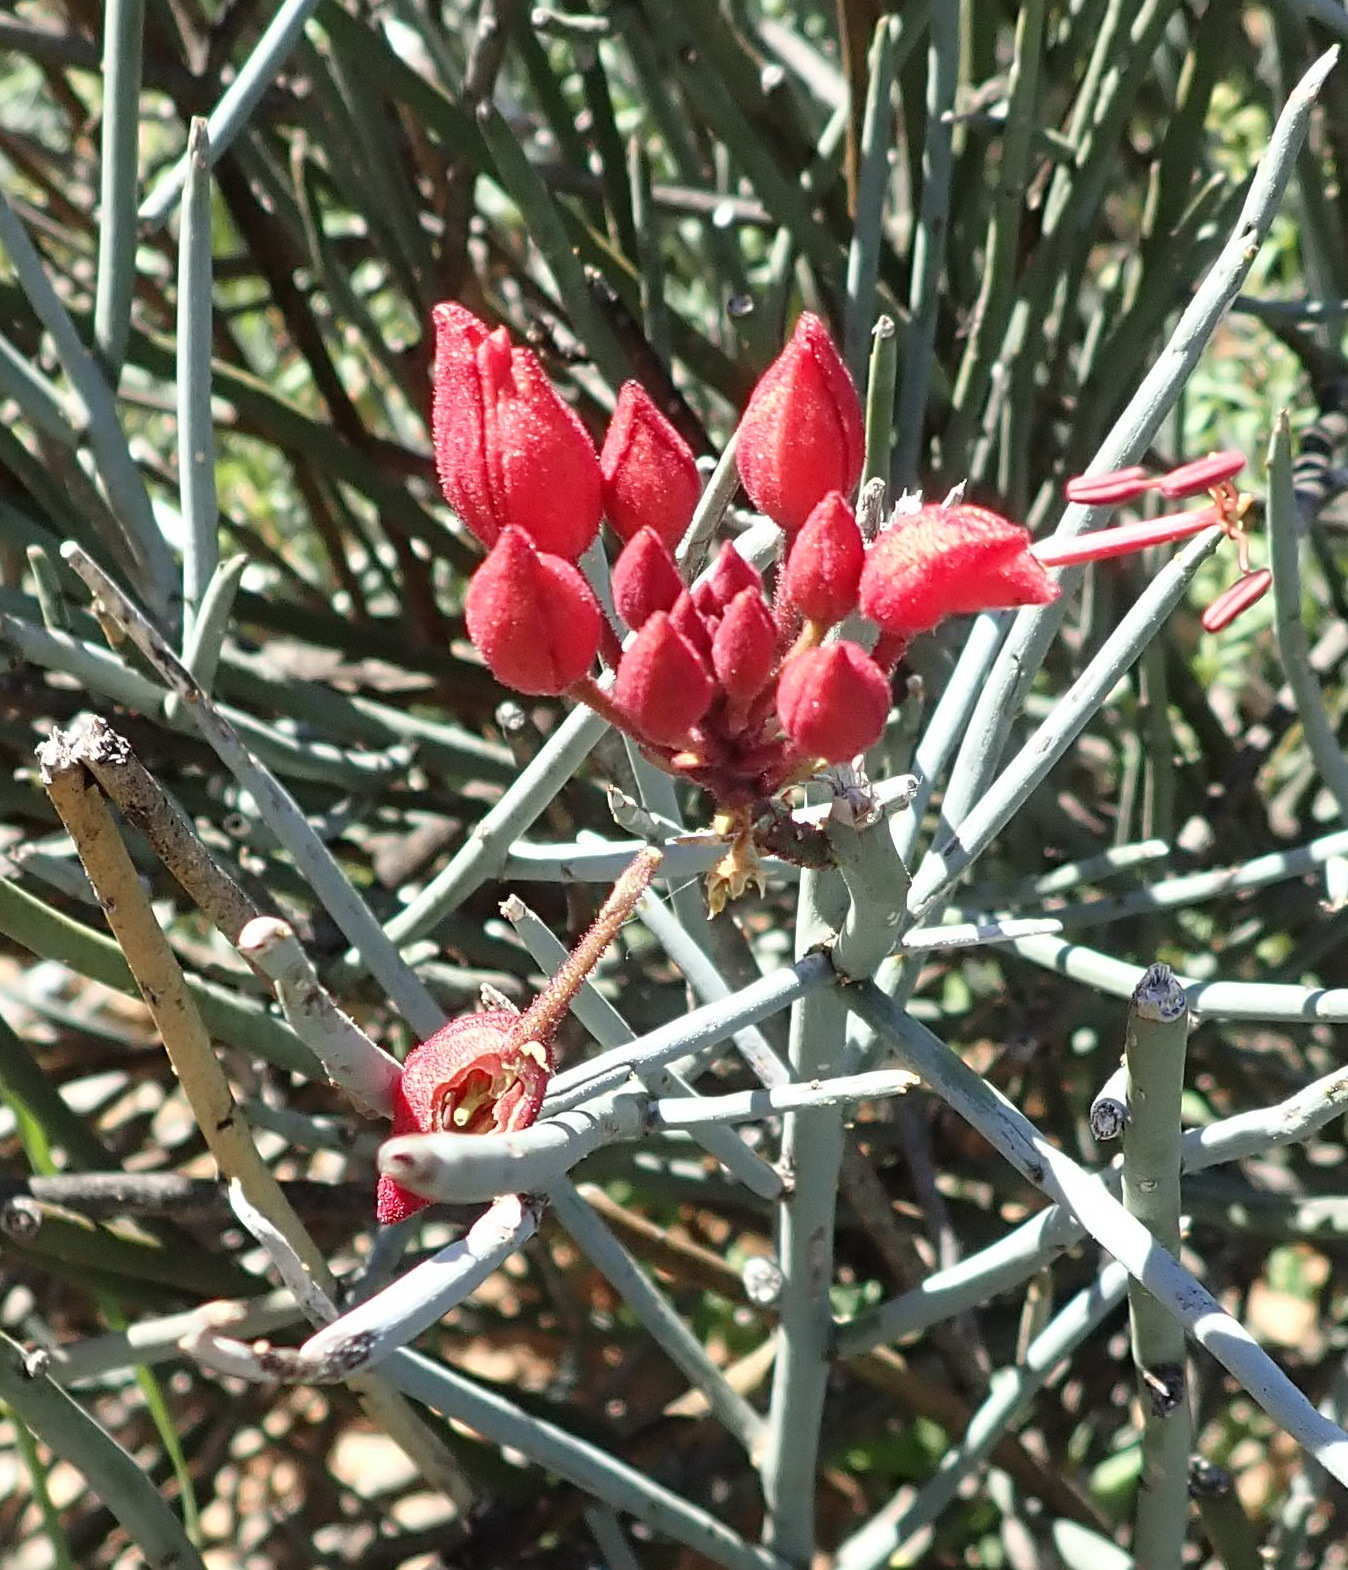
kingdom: Plantae
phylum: Tracheophyta
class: Magnoliopsida
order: Brassicales
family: Capparaceae
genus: Cadaba
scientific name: Cadaba aphylla
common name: Black storm
